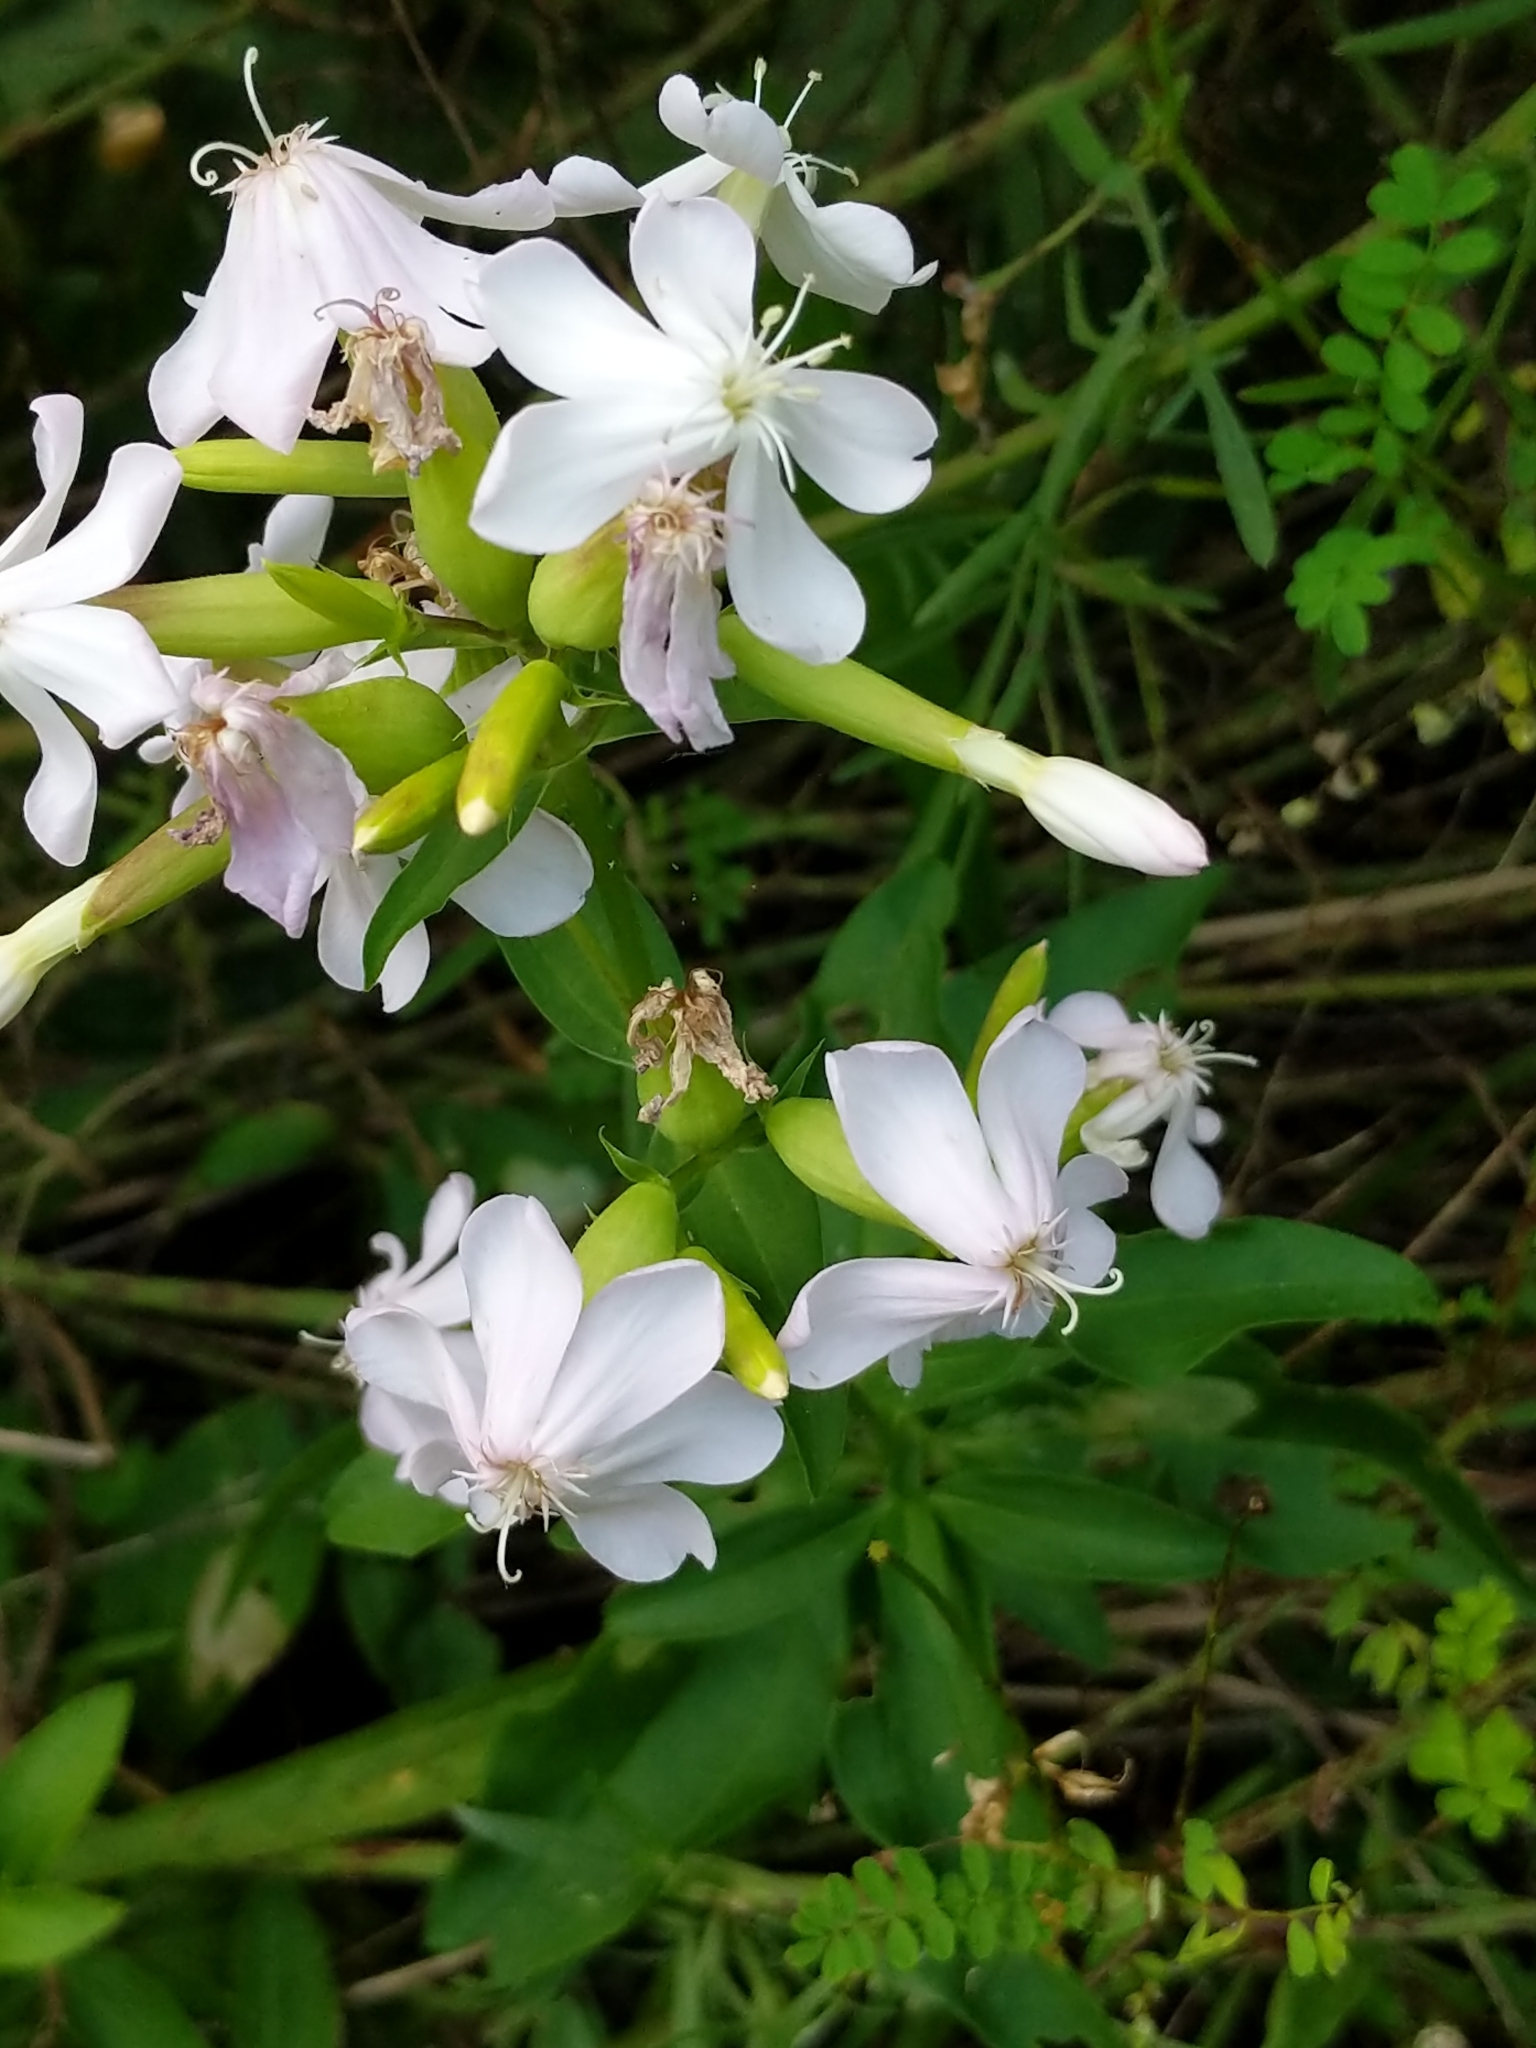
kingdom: Plantae
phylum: Tracheophyta
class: Magnoliopsida
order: Caryophyllales
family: Caryophyllaceae
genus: Saponaria
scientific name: Saponaria officinalis
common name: Soapwort
